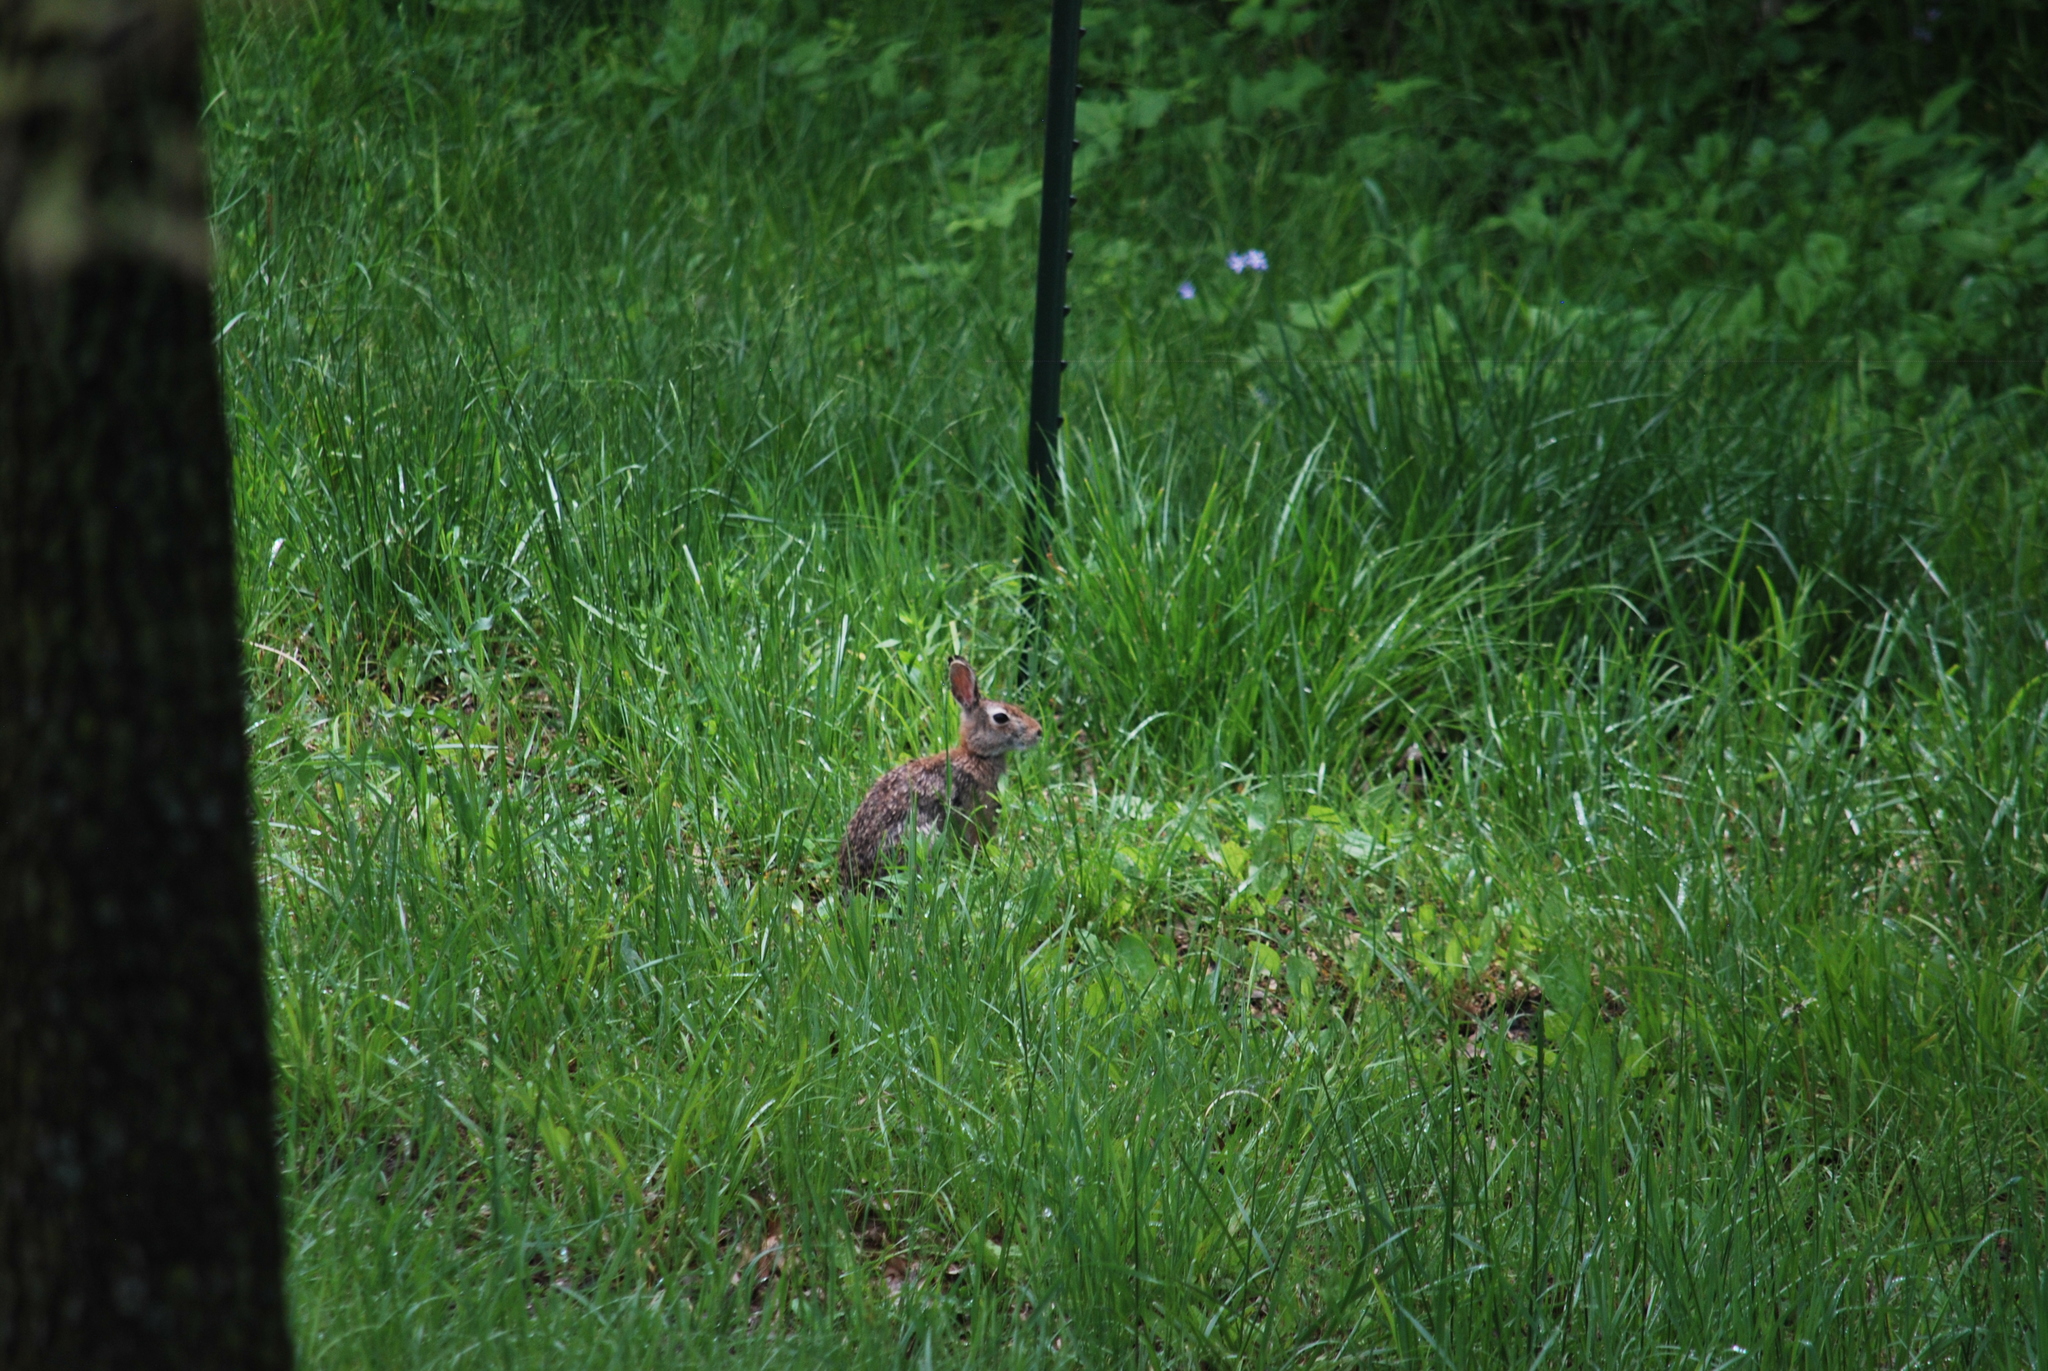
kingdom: Animalia
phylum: Chordata
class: Mammalia
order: Lagomorpha
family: Leporidae
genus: Sylvilagus
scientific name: Sylvilagus floridanus
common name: Eastern cottontail
